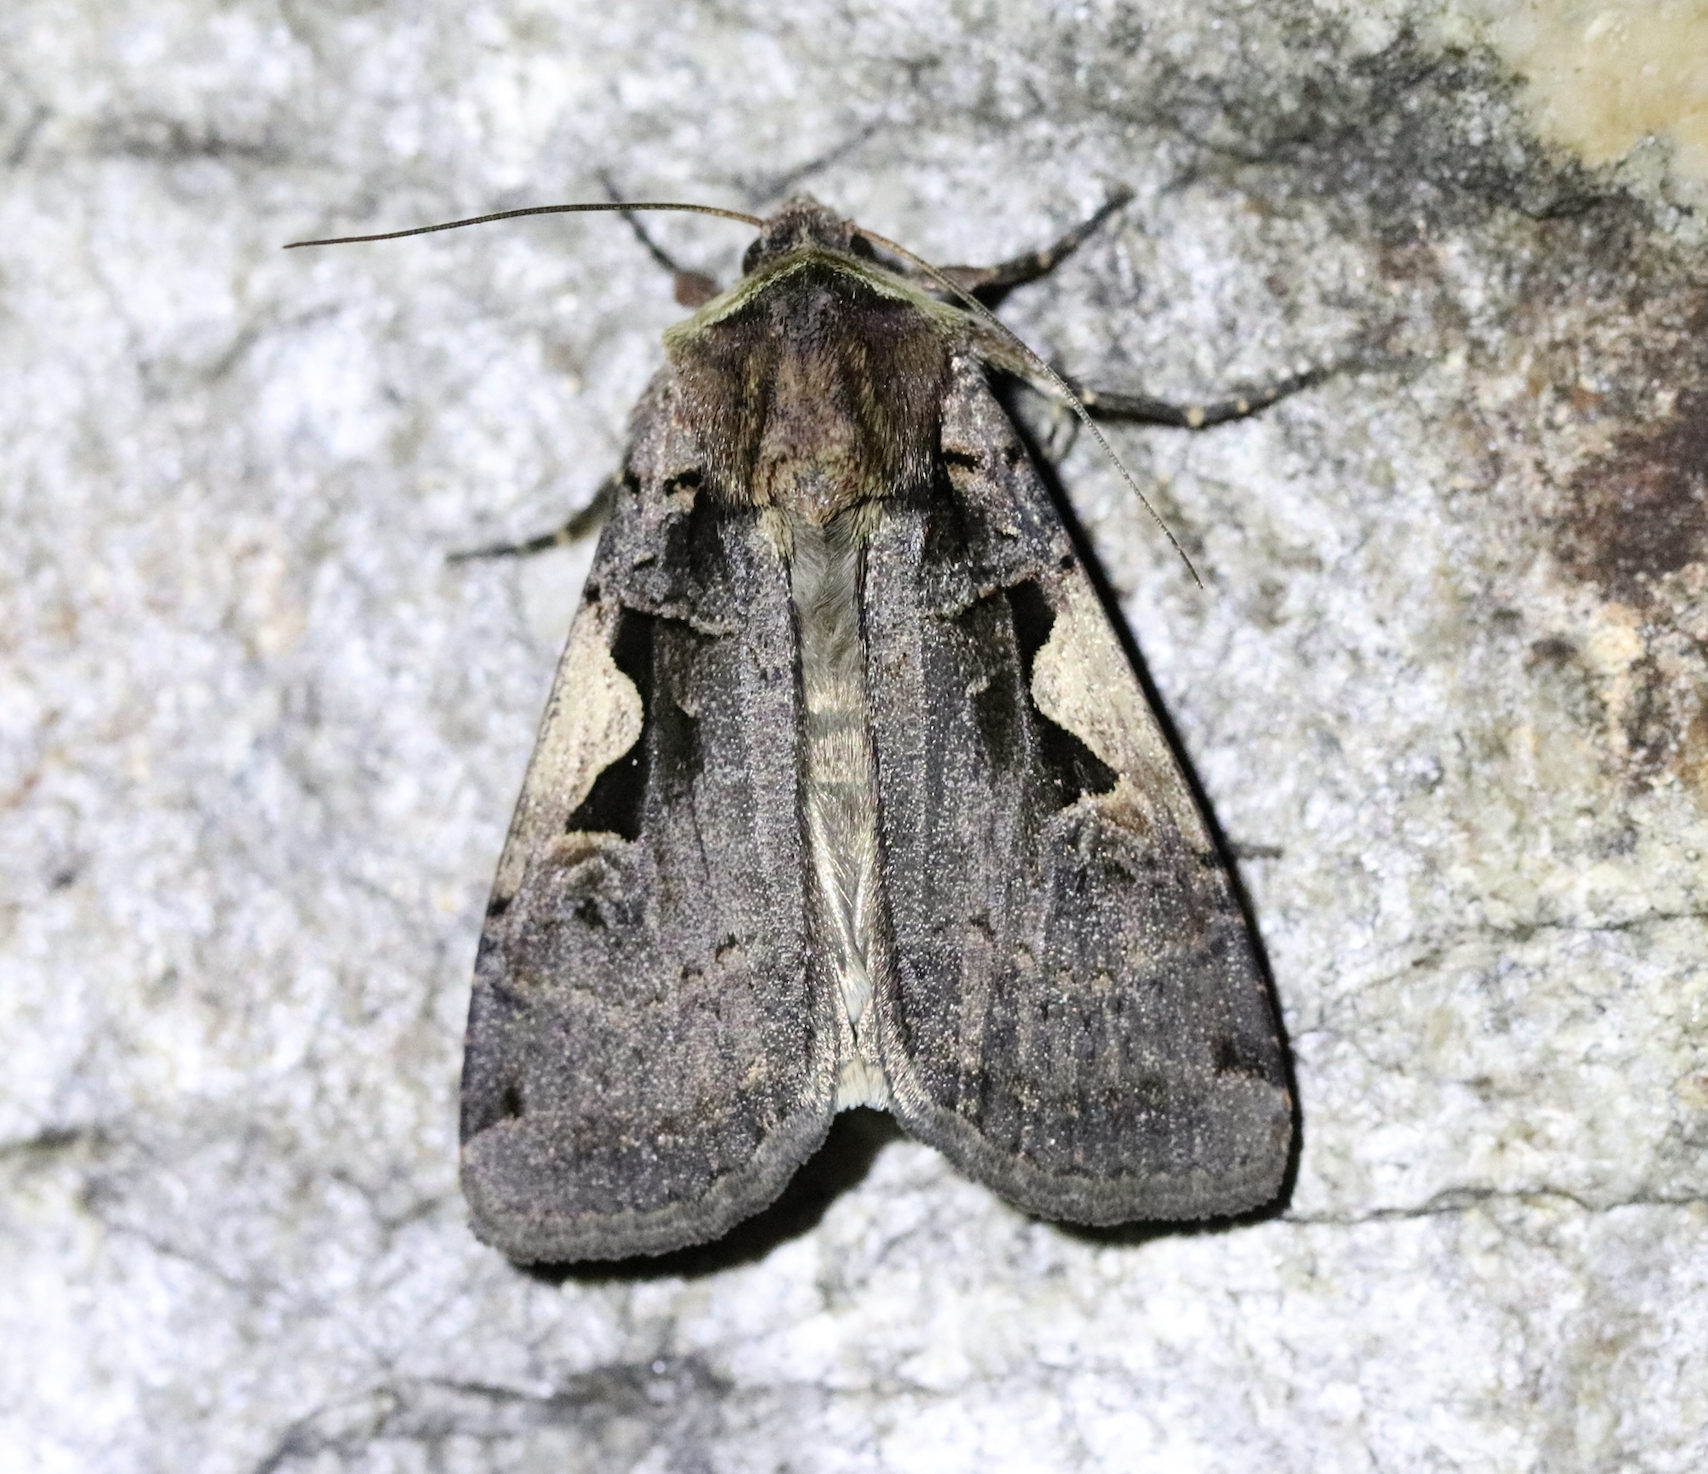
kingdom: Animalia
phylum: Arthropoda
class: Insecta
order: Lepidoptera
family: Noctuidae
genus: Xestia
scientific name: Xestia c-nigrum
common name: Setaceous hebrew character
